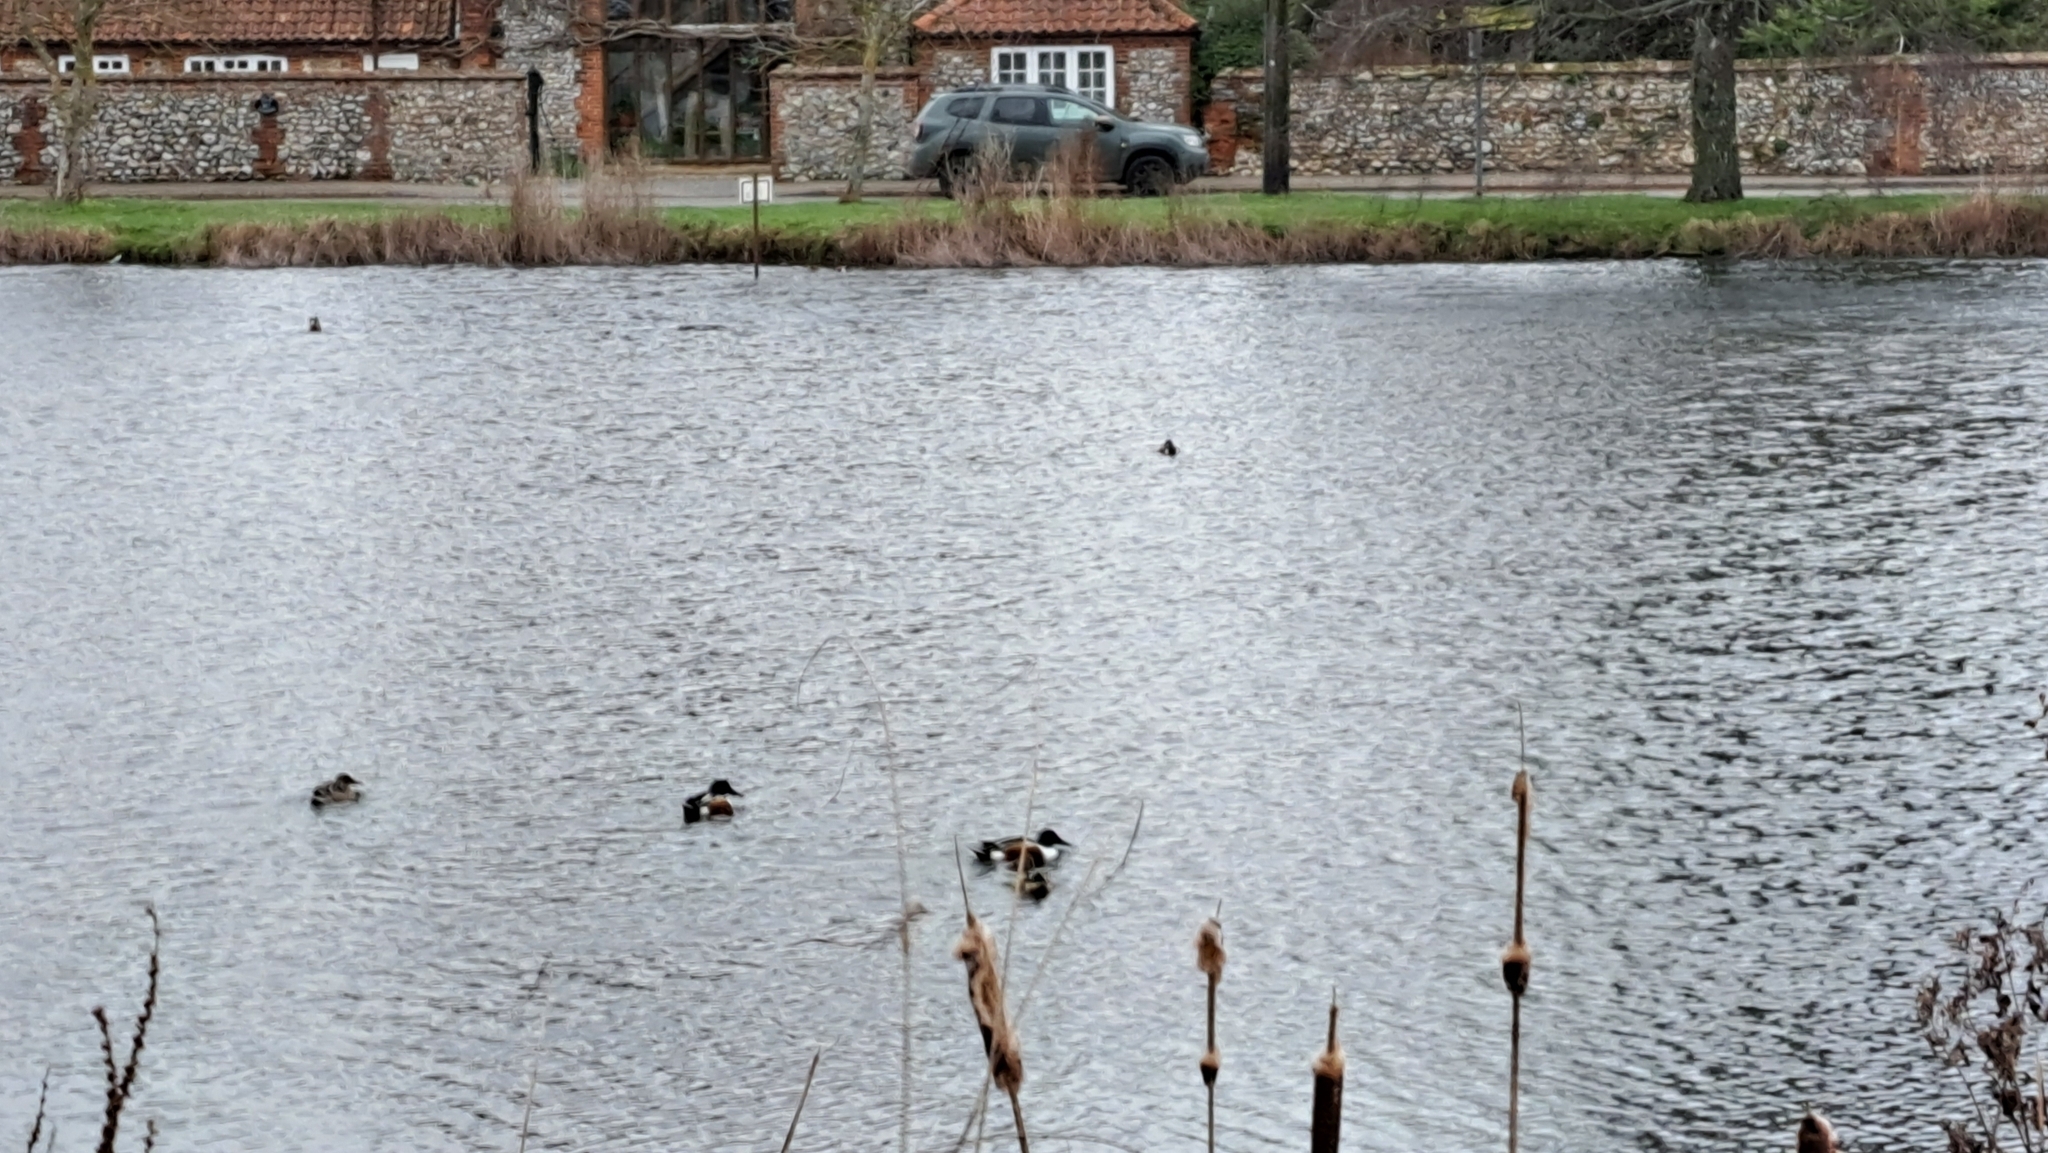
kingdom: Animalia
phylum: Chordata
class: Aves
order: Anseriformes
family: Anatidae
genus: Spatula
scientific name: Spatula clypeata
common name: Northern shoveler
